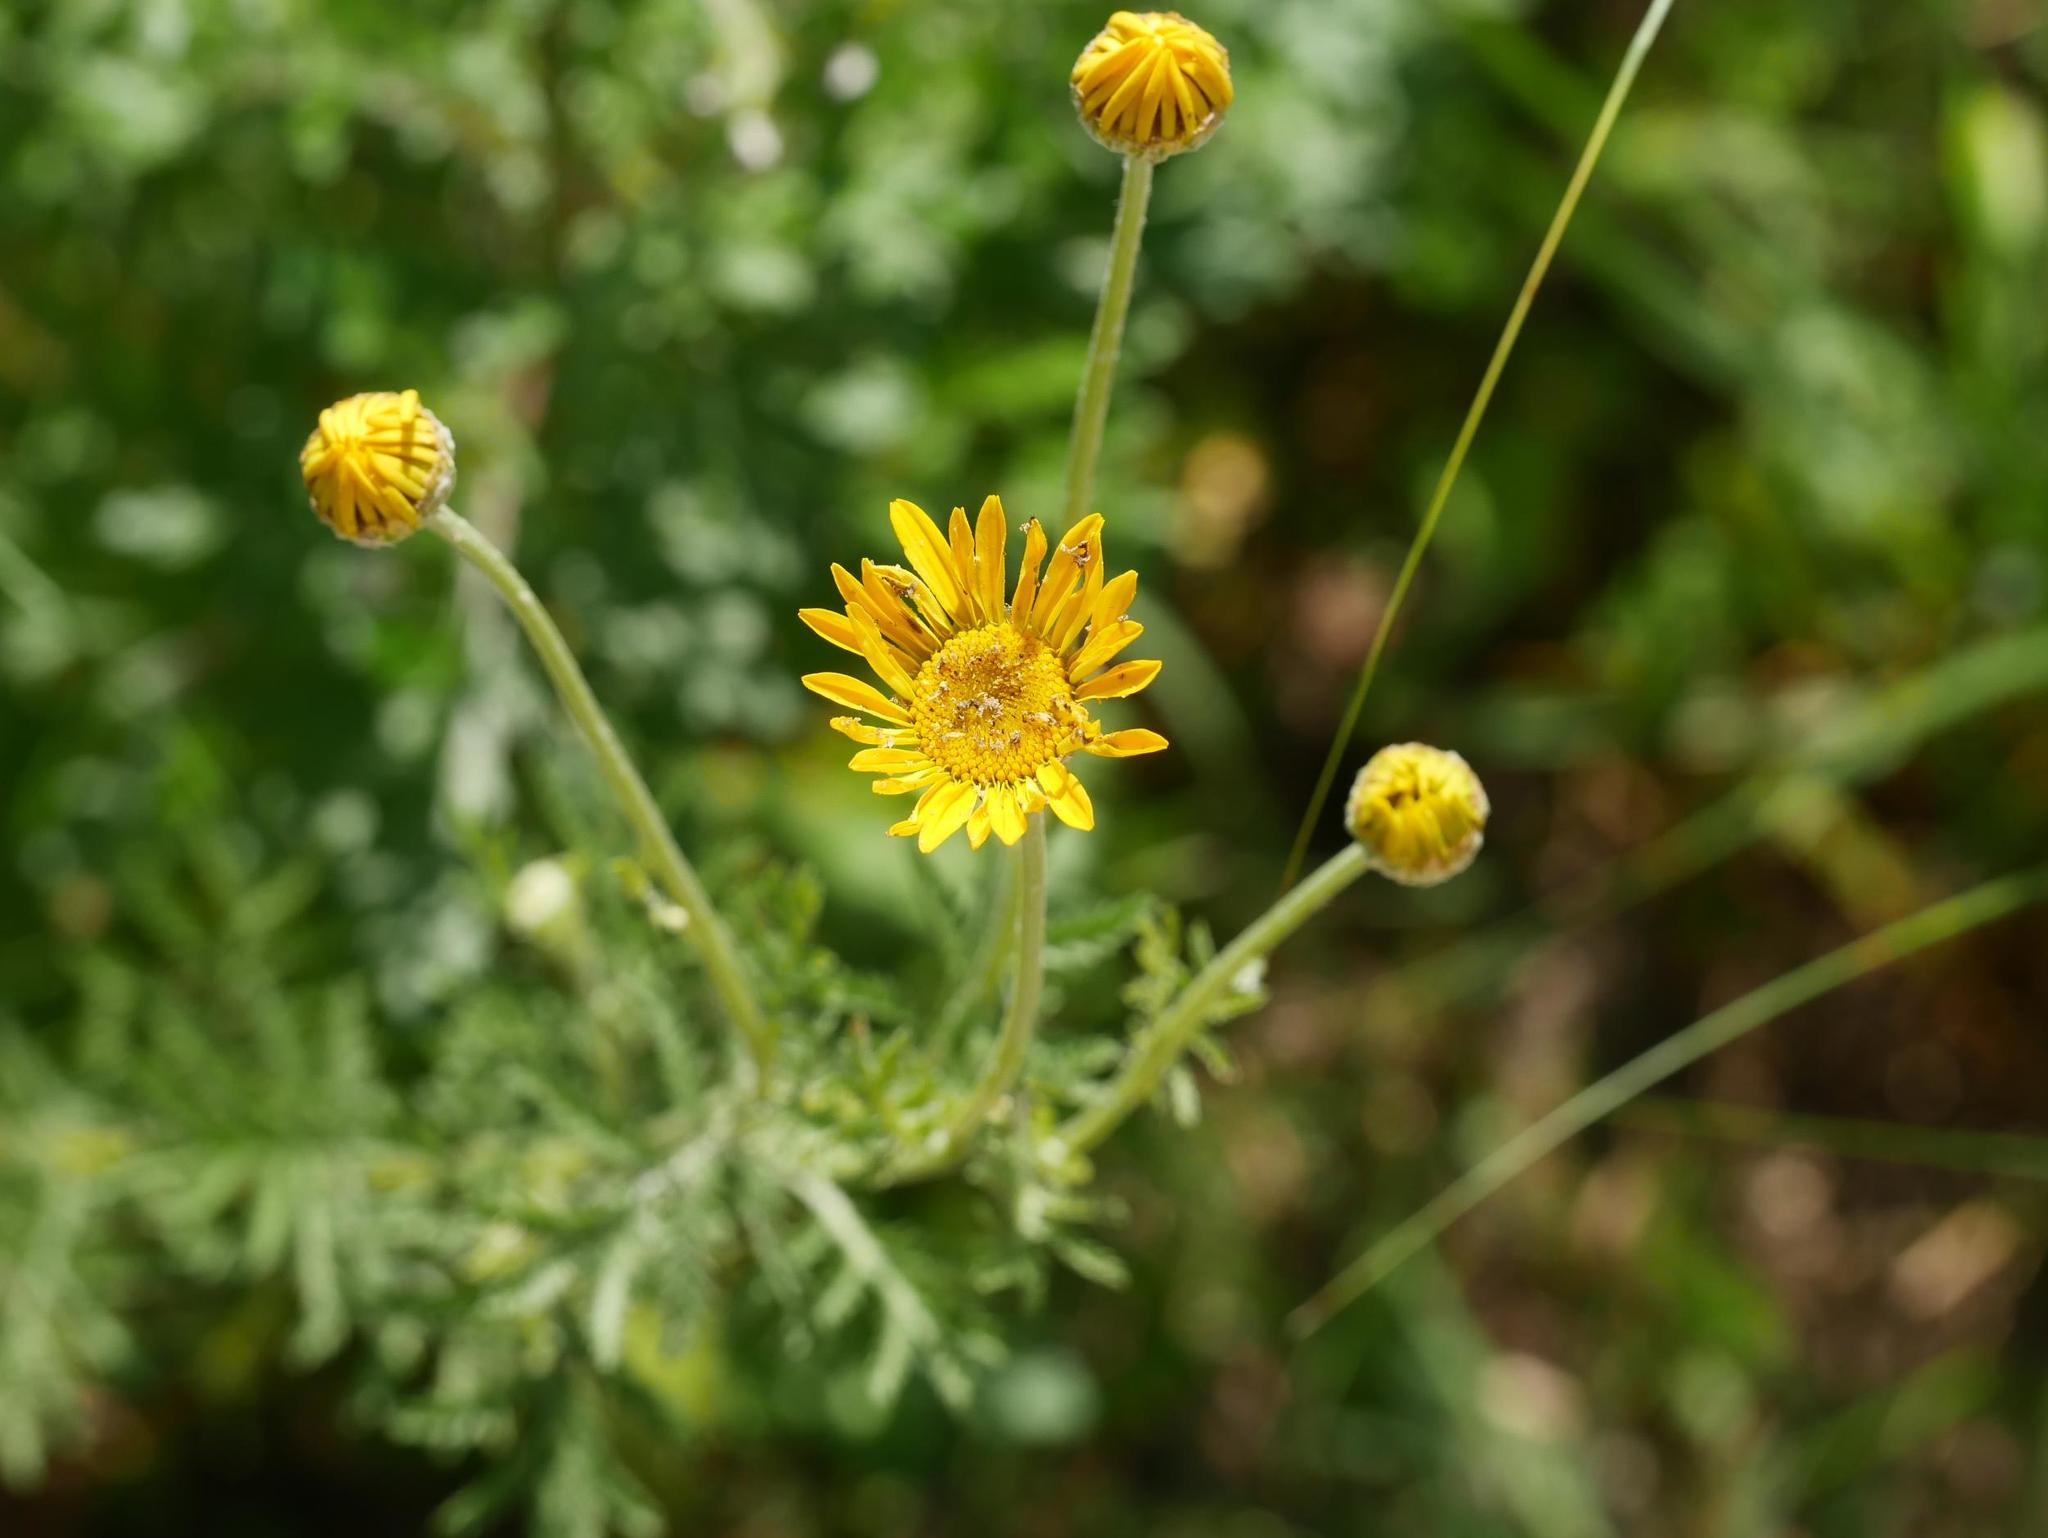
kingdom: Plantae
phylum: Tracheophyta
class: Magnoliopsida
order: Asterales
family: Asteraceae
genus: Cota
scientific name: Cota tinctoria
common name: Golden chamomile
